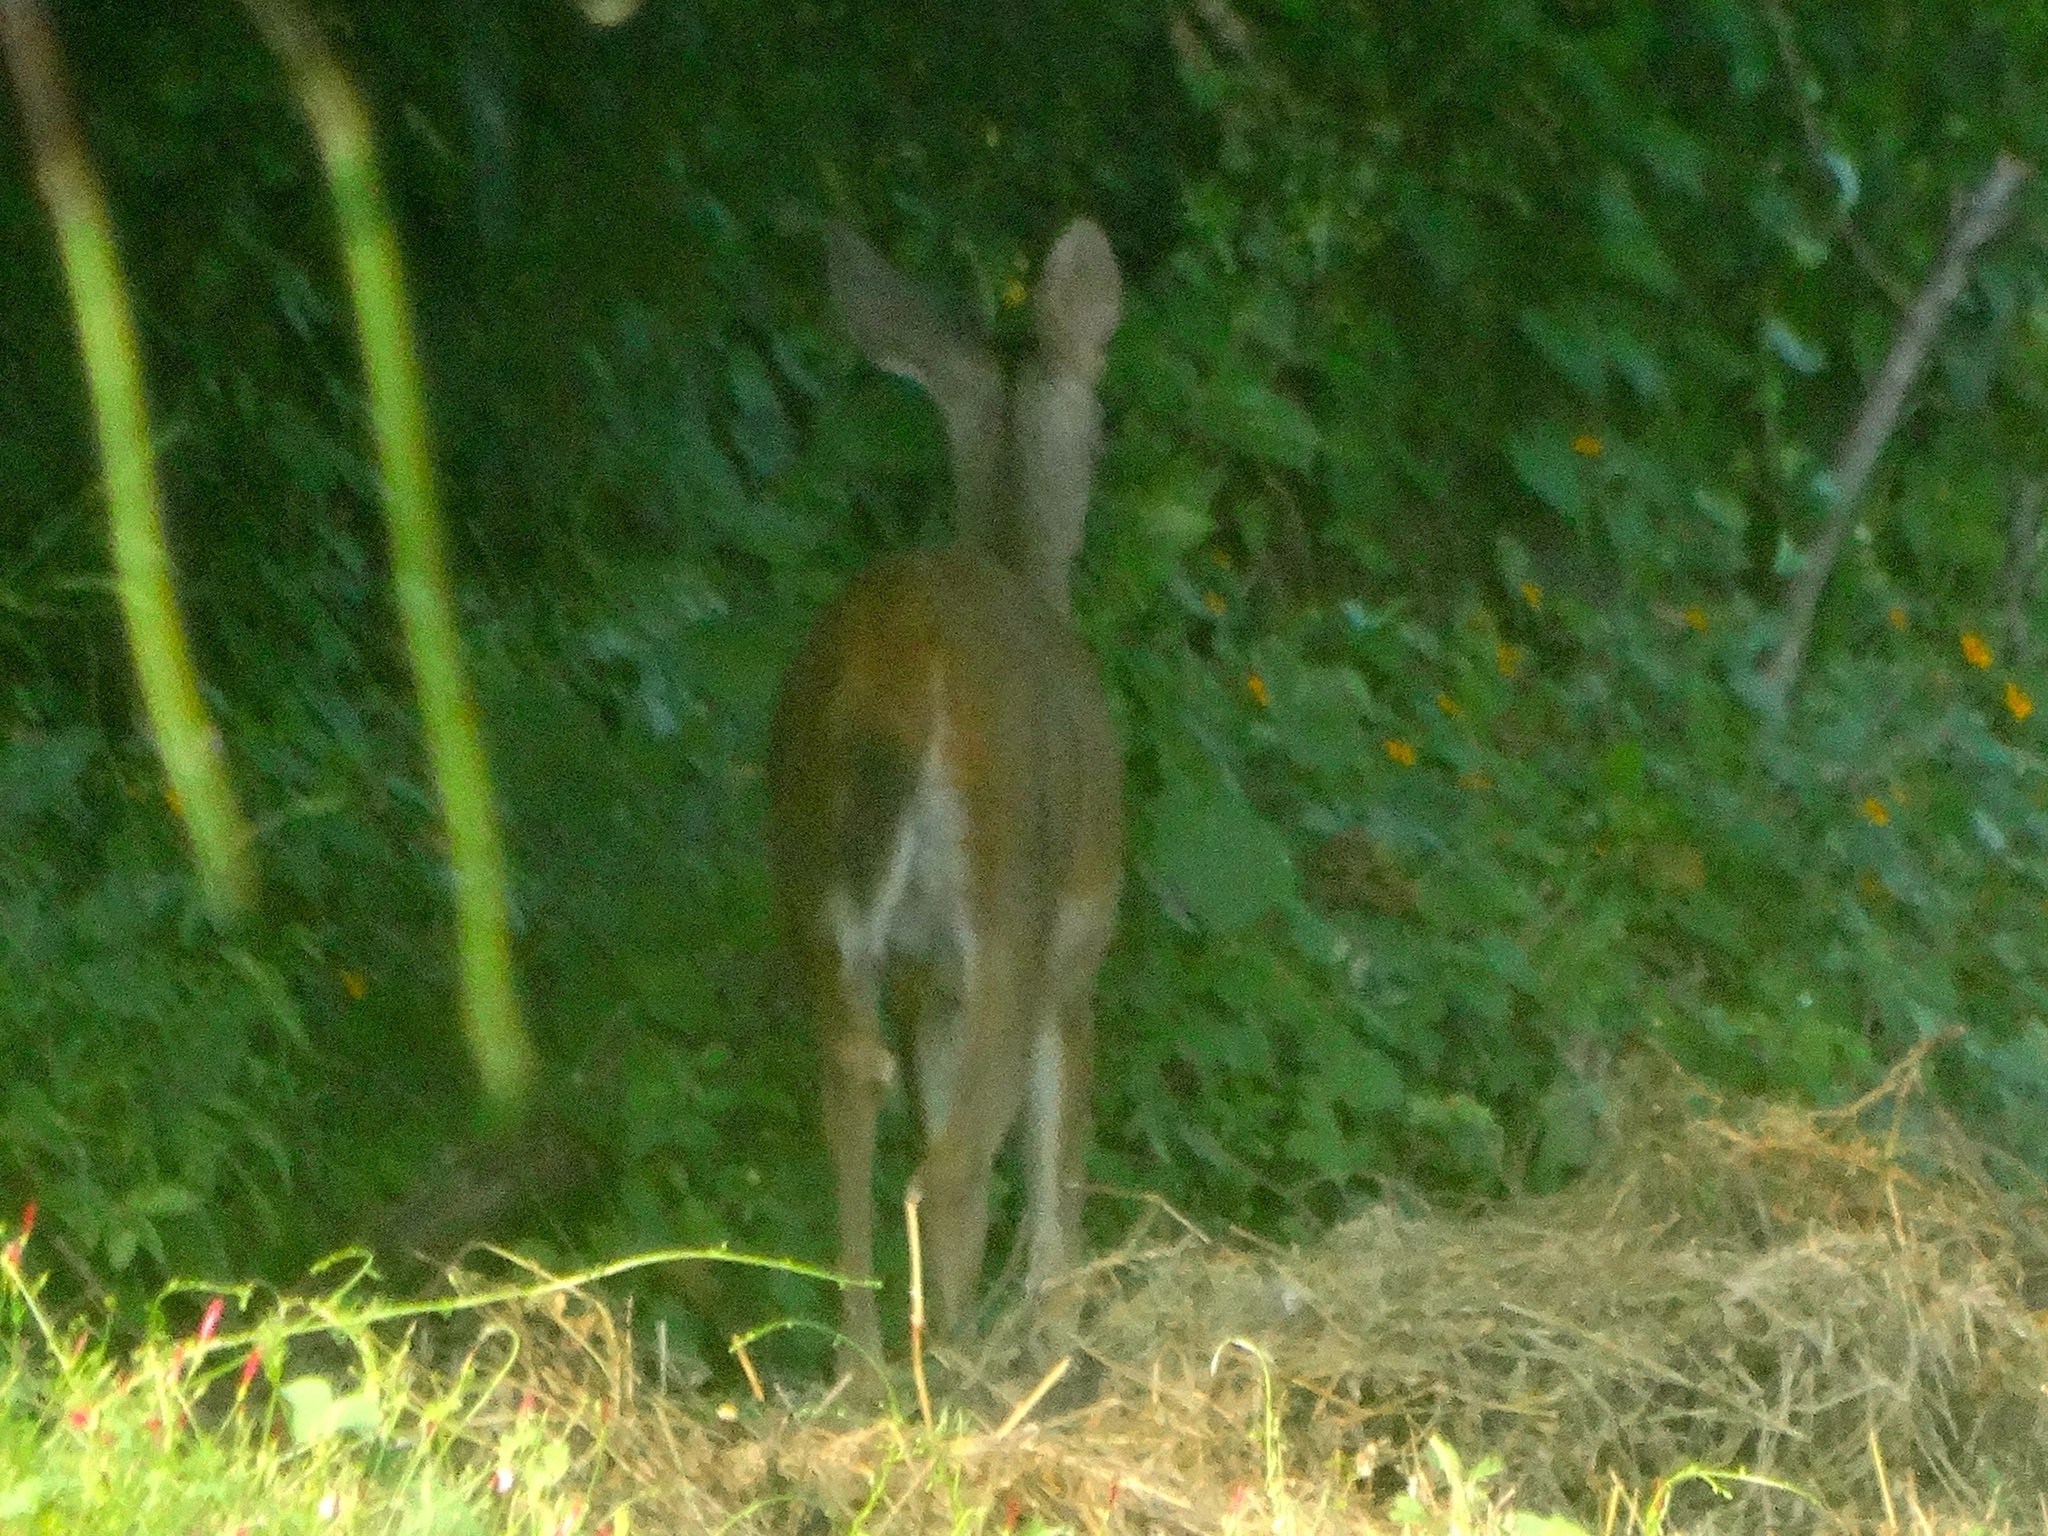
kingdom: Animalia
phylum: Chordata
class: Mammalia
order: Artiodactyla
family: Cervidae
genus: Odocoileus
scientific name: Odocoileus virginianus
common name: White-tailed deer
